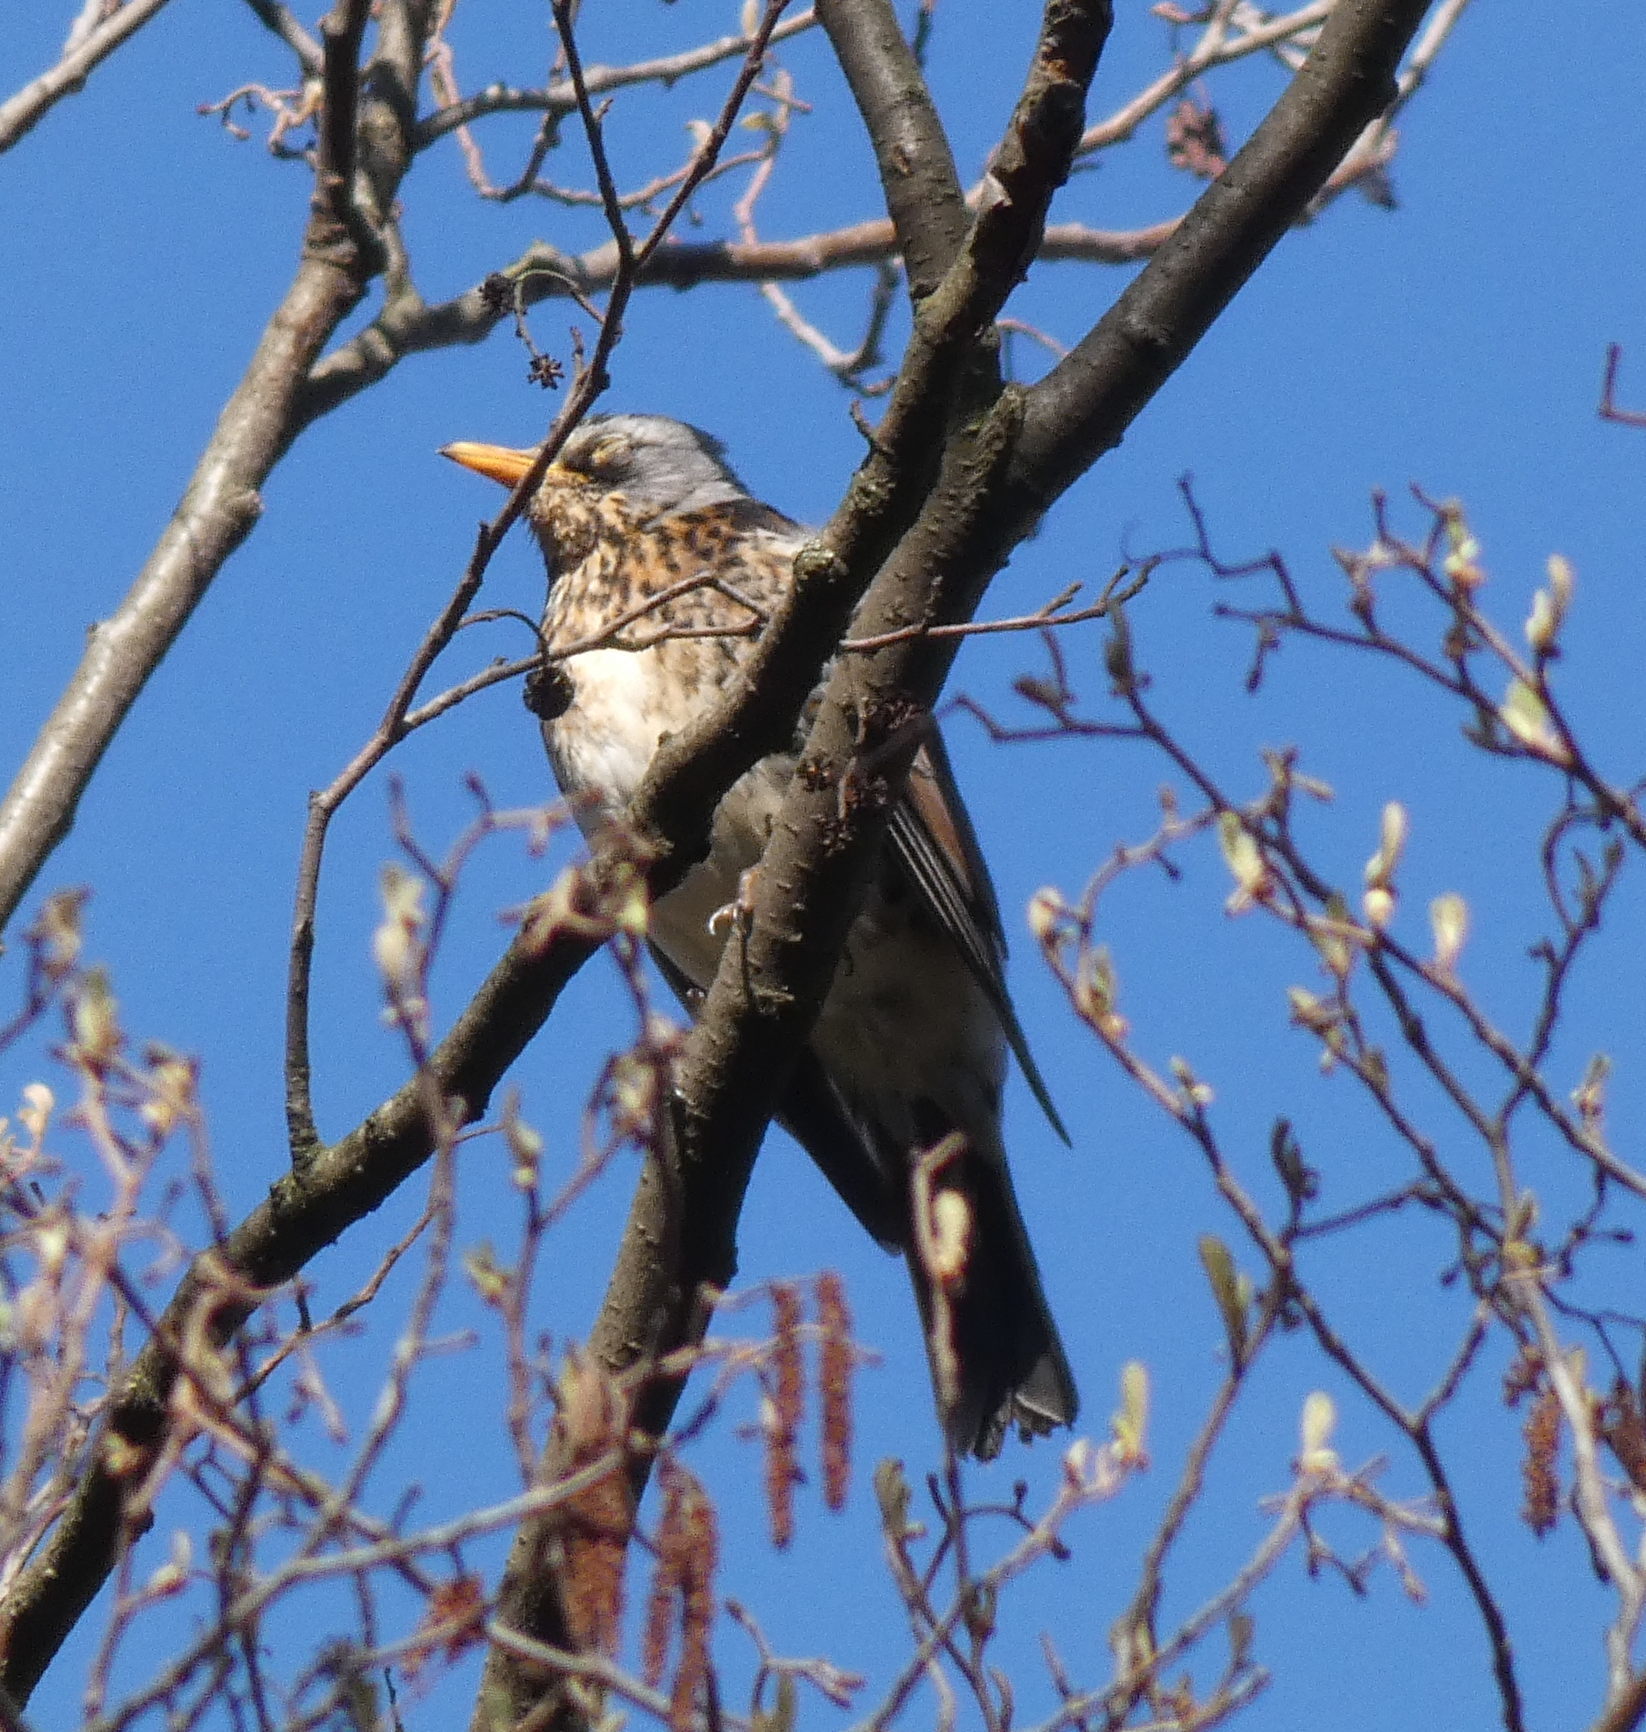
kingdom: Animalia
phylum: Chordata
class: Aves
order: Passeriformes
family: Turdidae
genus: Turdus
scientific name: Turdus pilaris
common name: Fieldfare
